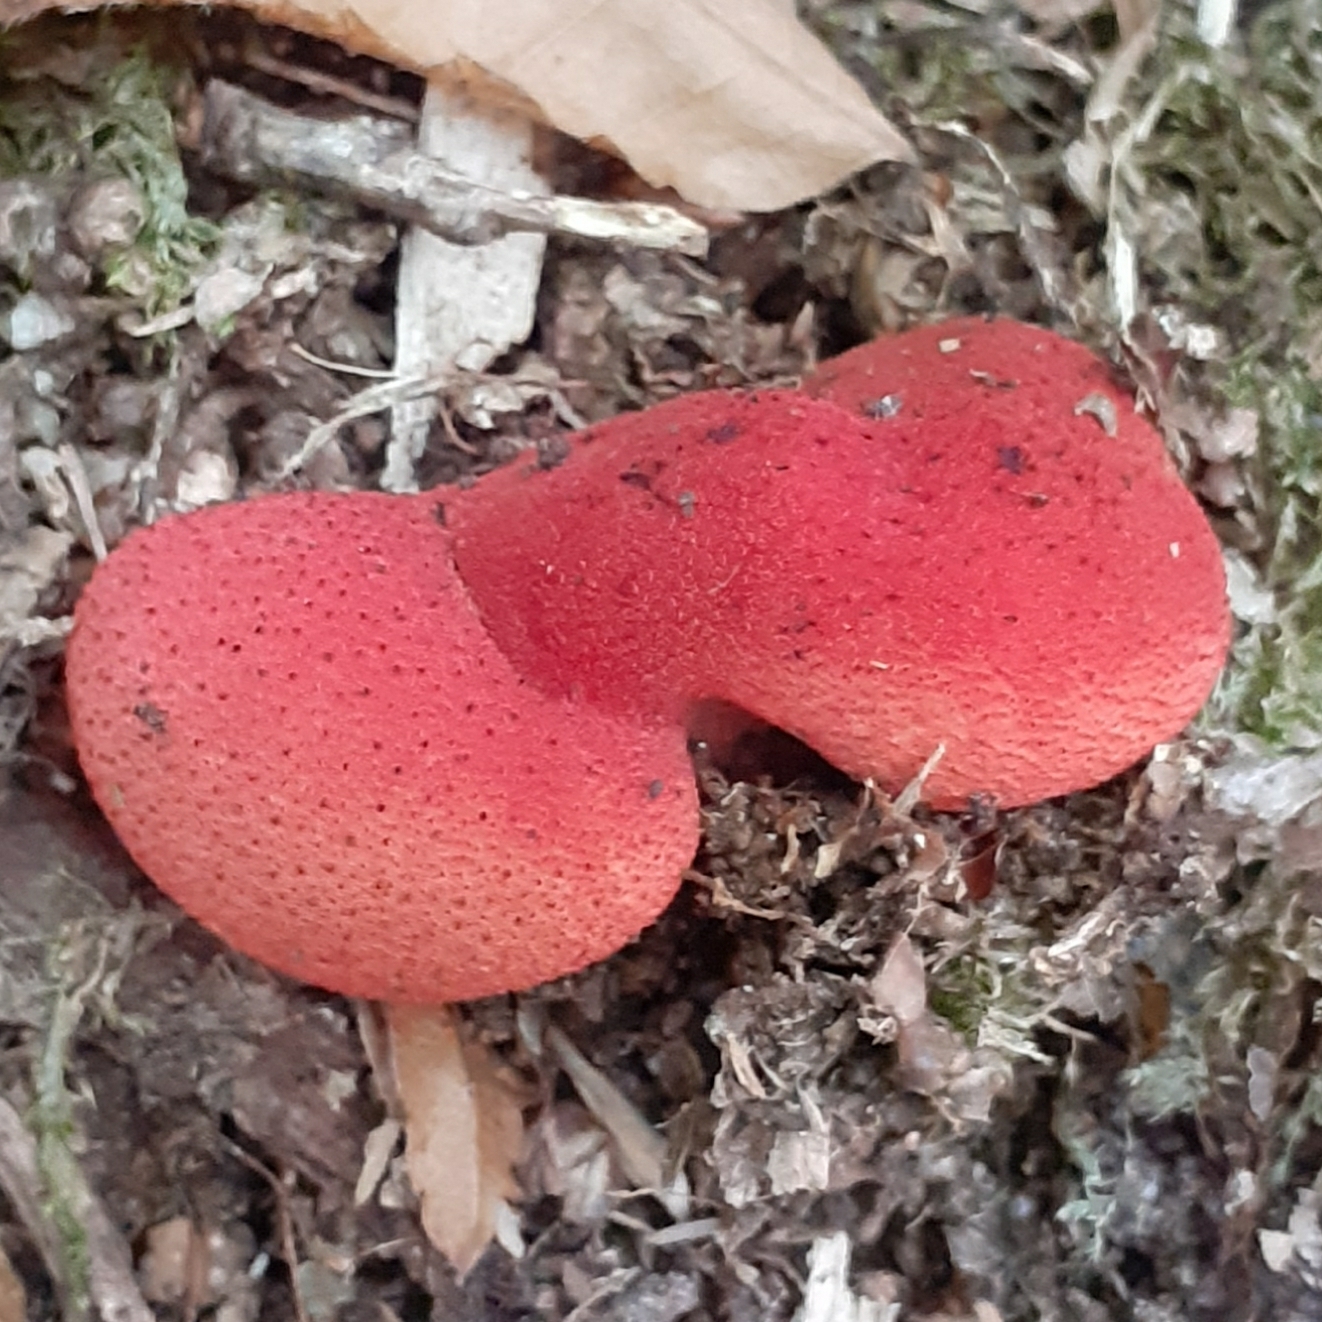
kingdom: Fungi
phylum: Basidiomycota
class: Agaricomycetes
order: Agaricales
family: Fistulinaceae
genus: Fistulina
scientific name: Fistulina hepatica
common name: Beef-steak fungus
